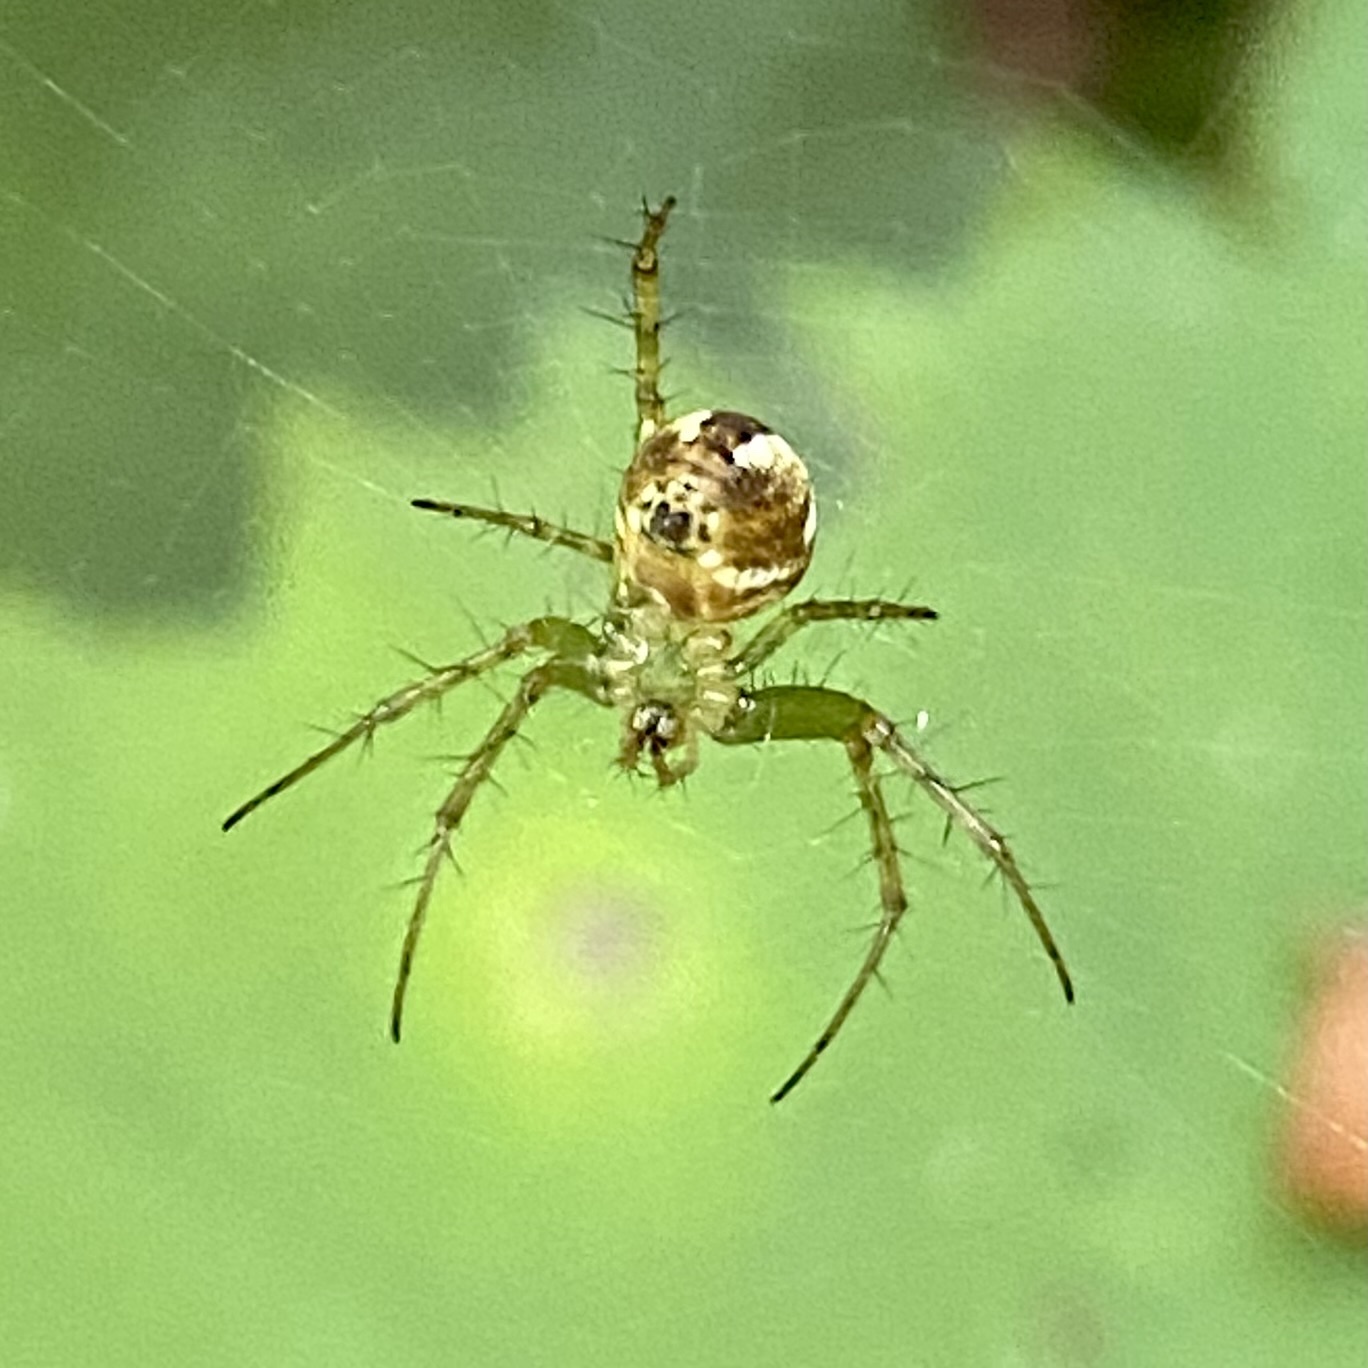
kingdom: Animalia
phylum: Arthropoda
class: Arachnida
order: Araneae
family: Araneidae
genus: Mangora
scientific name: Mangora
